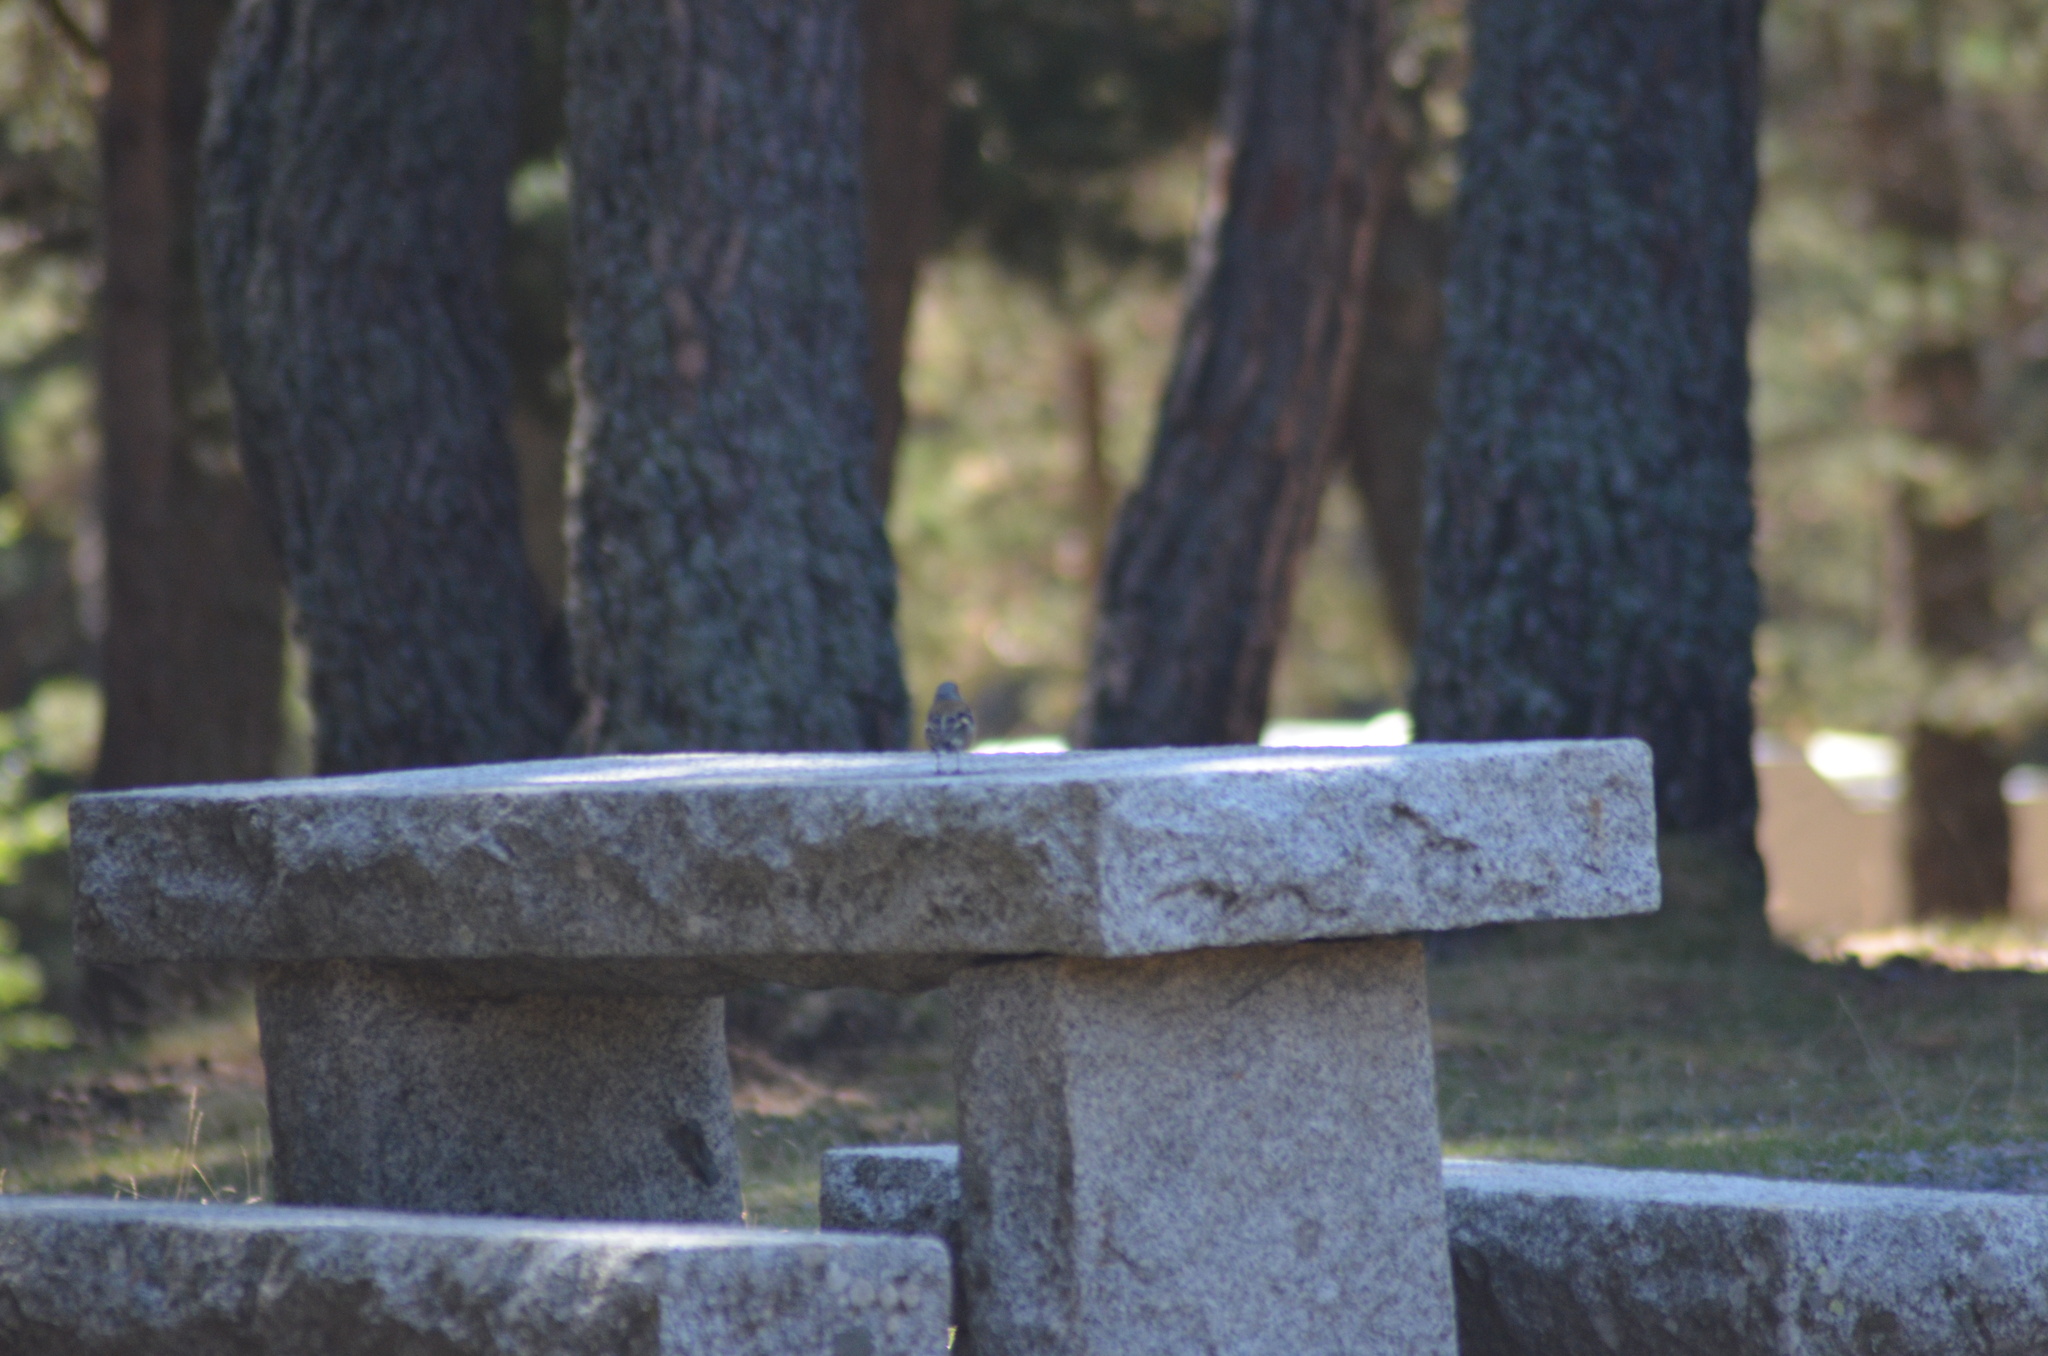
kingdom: Animalia
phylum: Chordata
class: Aves
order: Passeriformes
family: Fringillidae
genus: Fringilla
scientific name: Fringilla coelebs
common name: Common chaffinch
